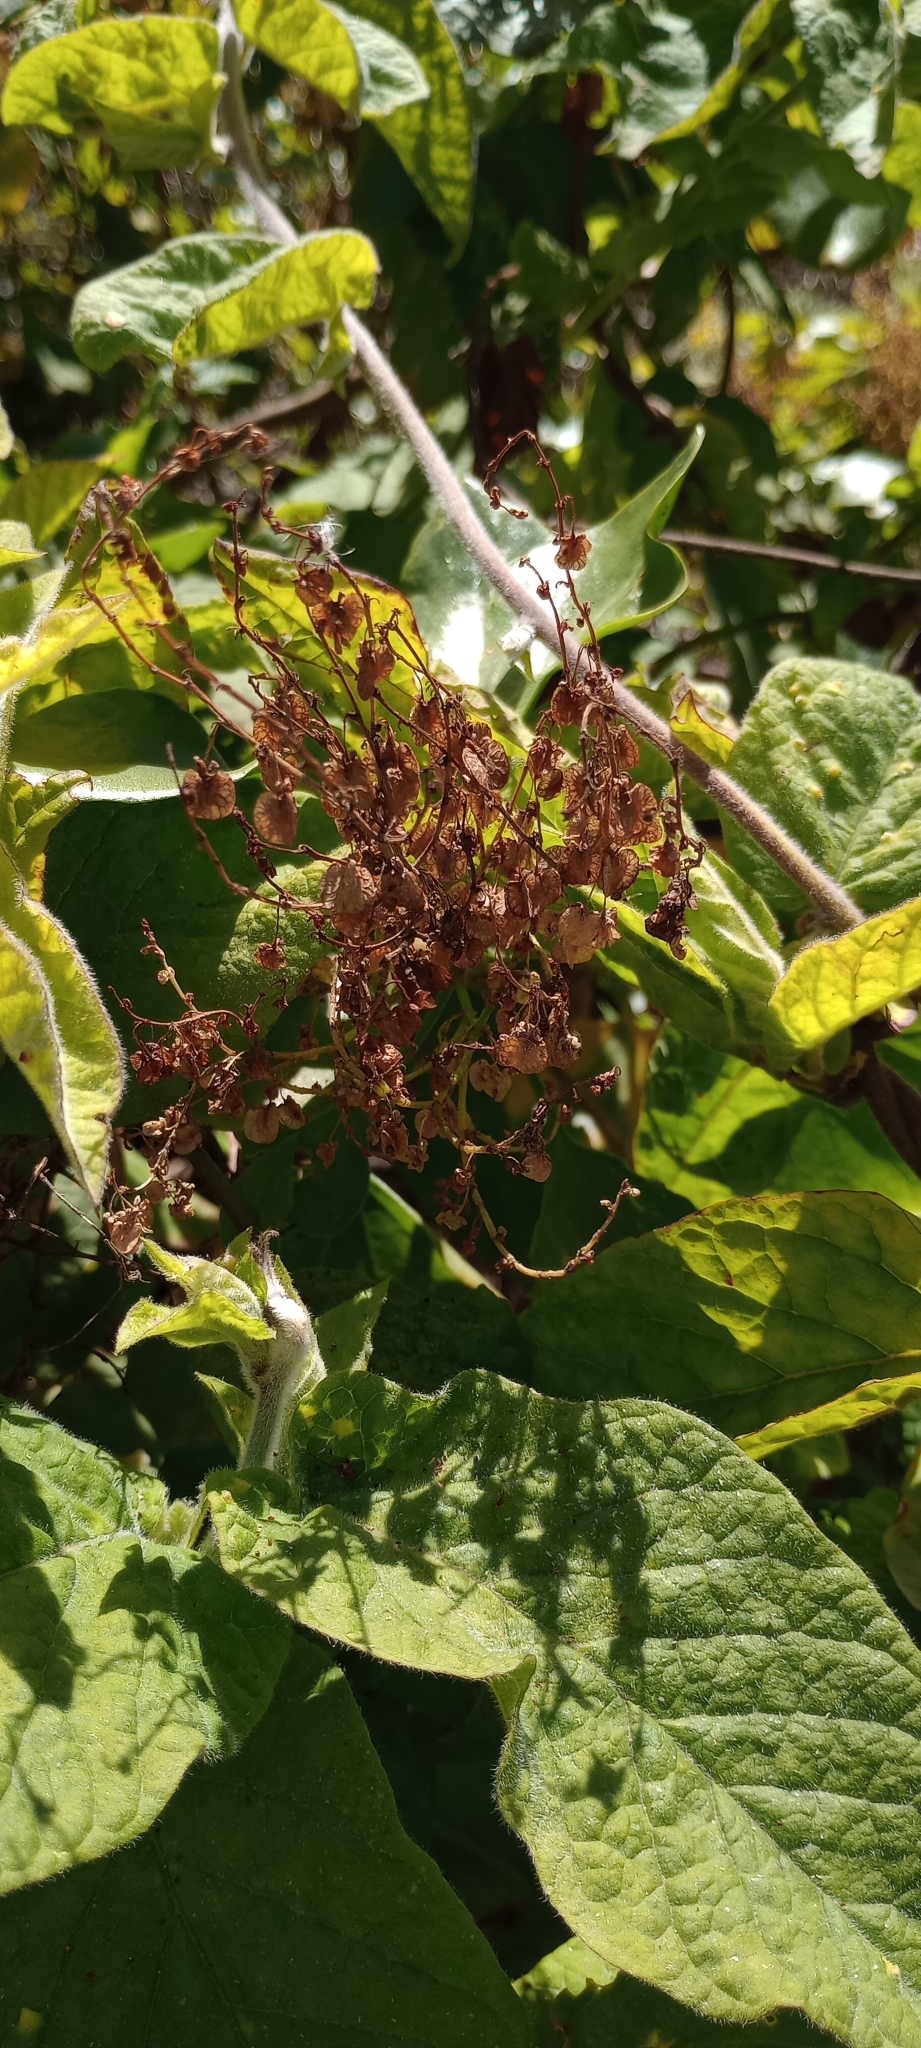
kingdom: Plantae
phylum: Tracheophyta
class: Magnoliopsida
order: Caryophyllales
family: Polygonaceae
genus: Rumex
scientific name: Rumex lunaria
